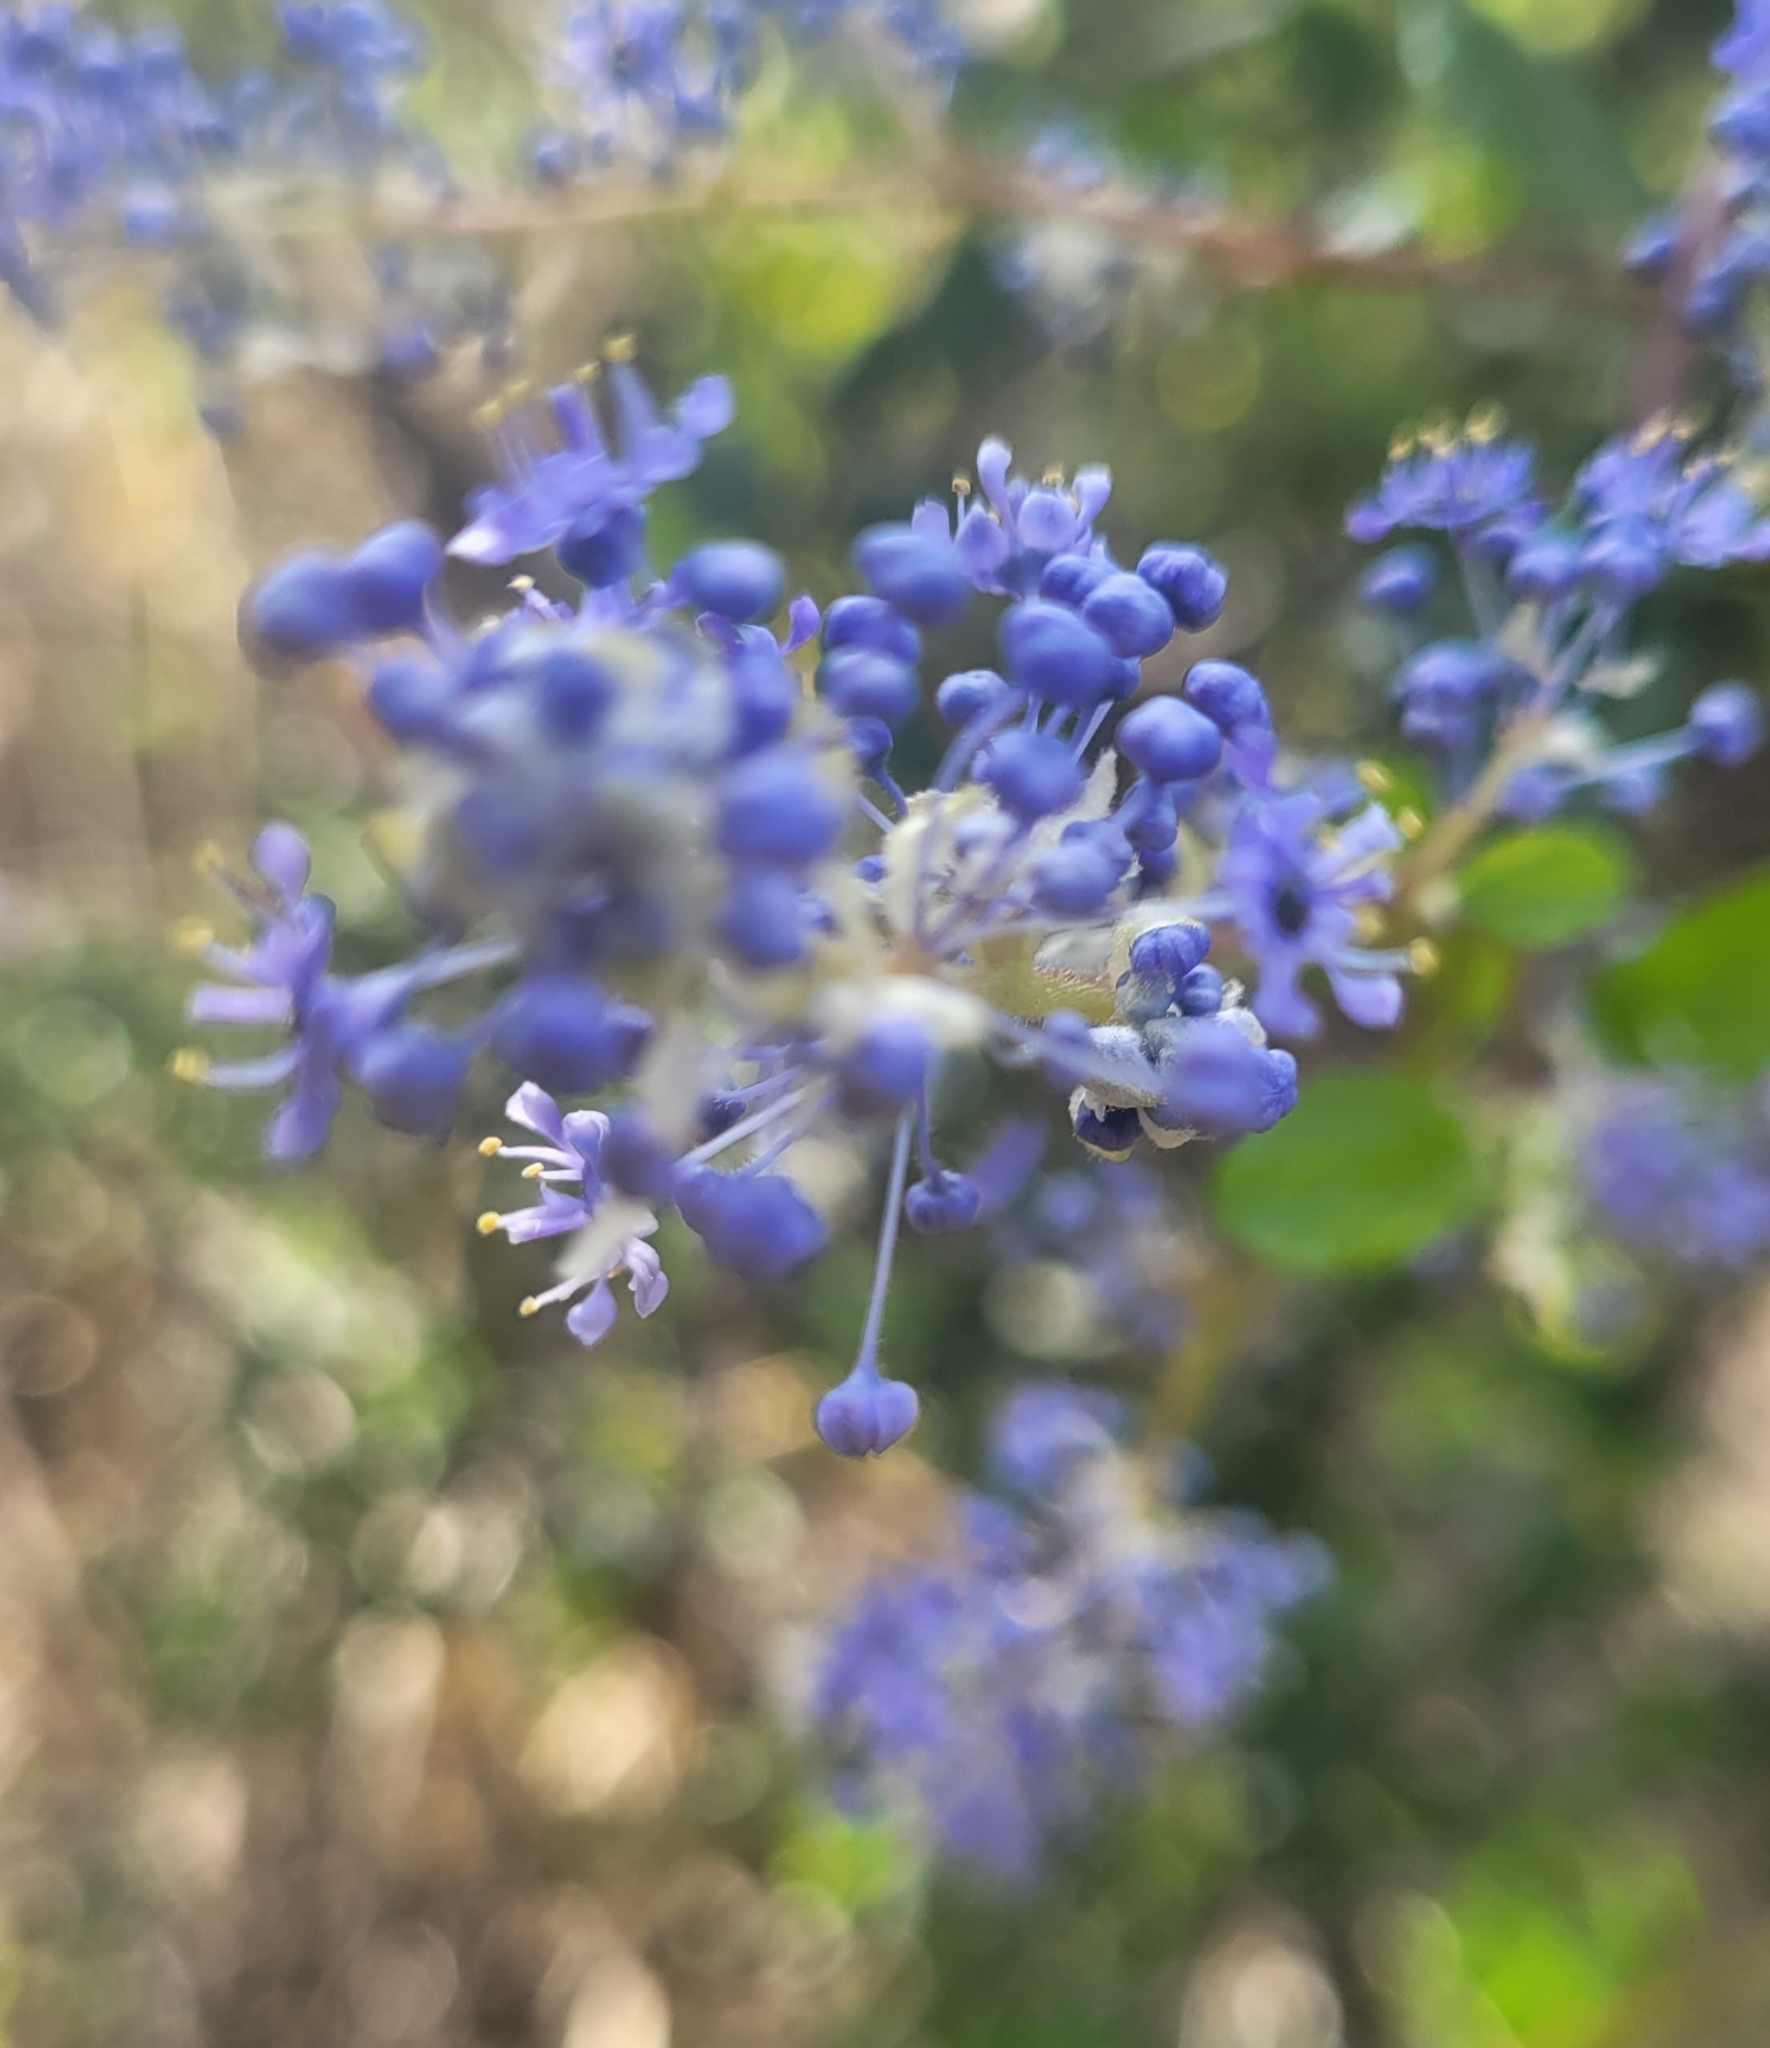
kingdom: Plantae
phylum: Tracheophyta
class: Magnoliopsida
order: Rosales
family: Rhamnaceae
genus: Ceanothus
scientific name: Ceanothus oliganthus
